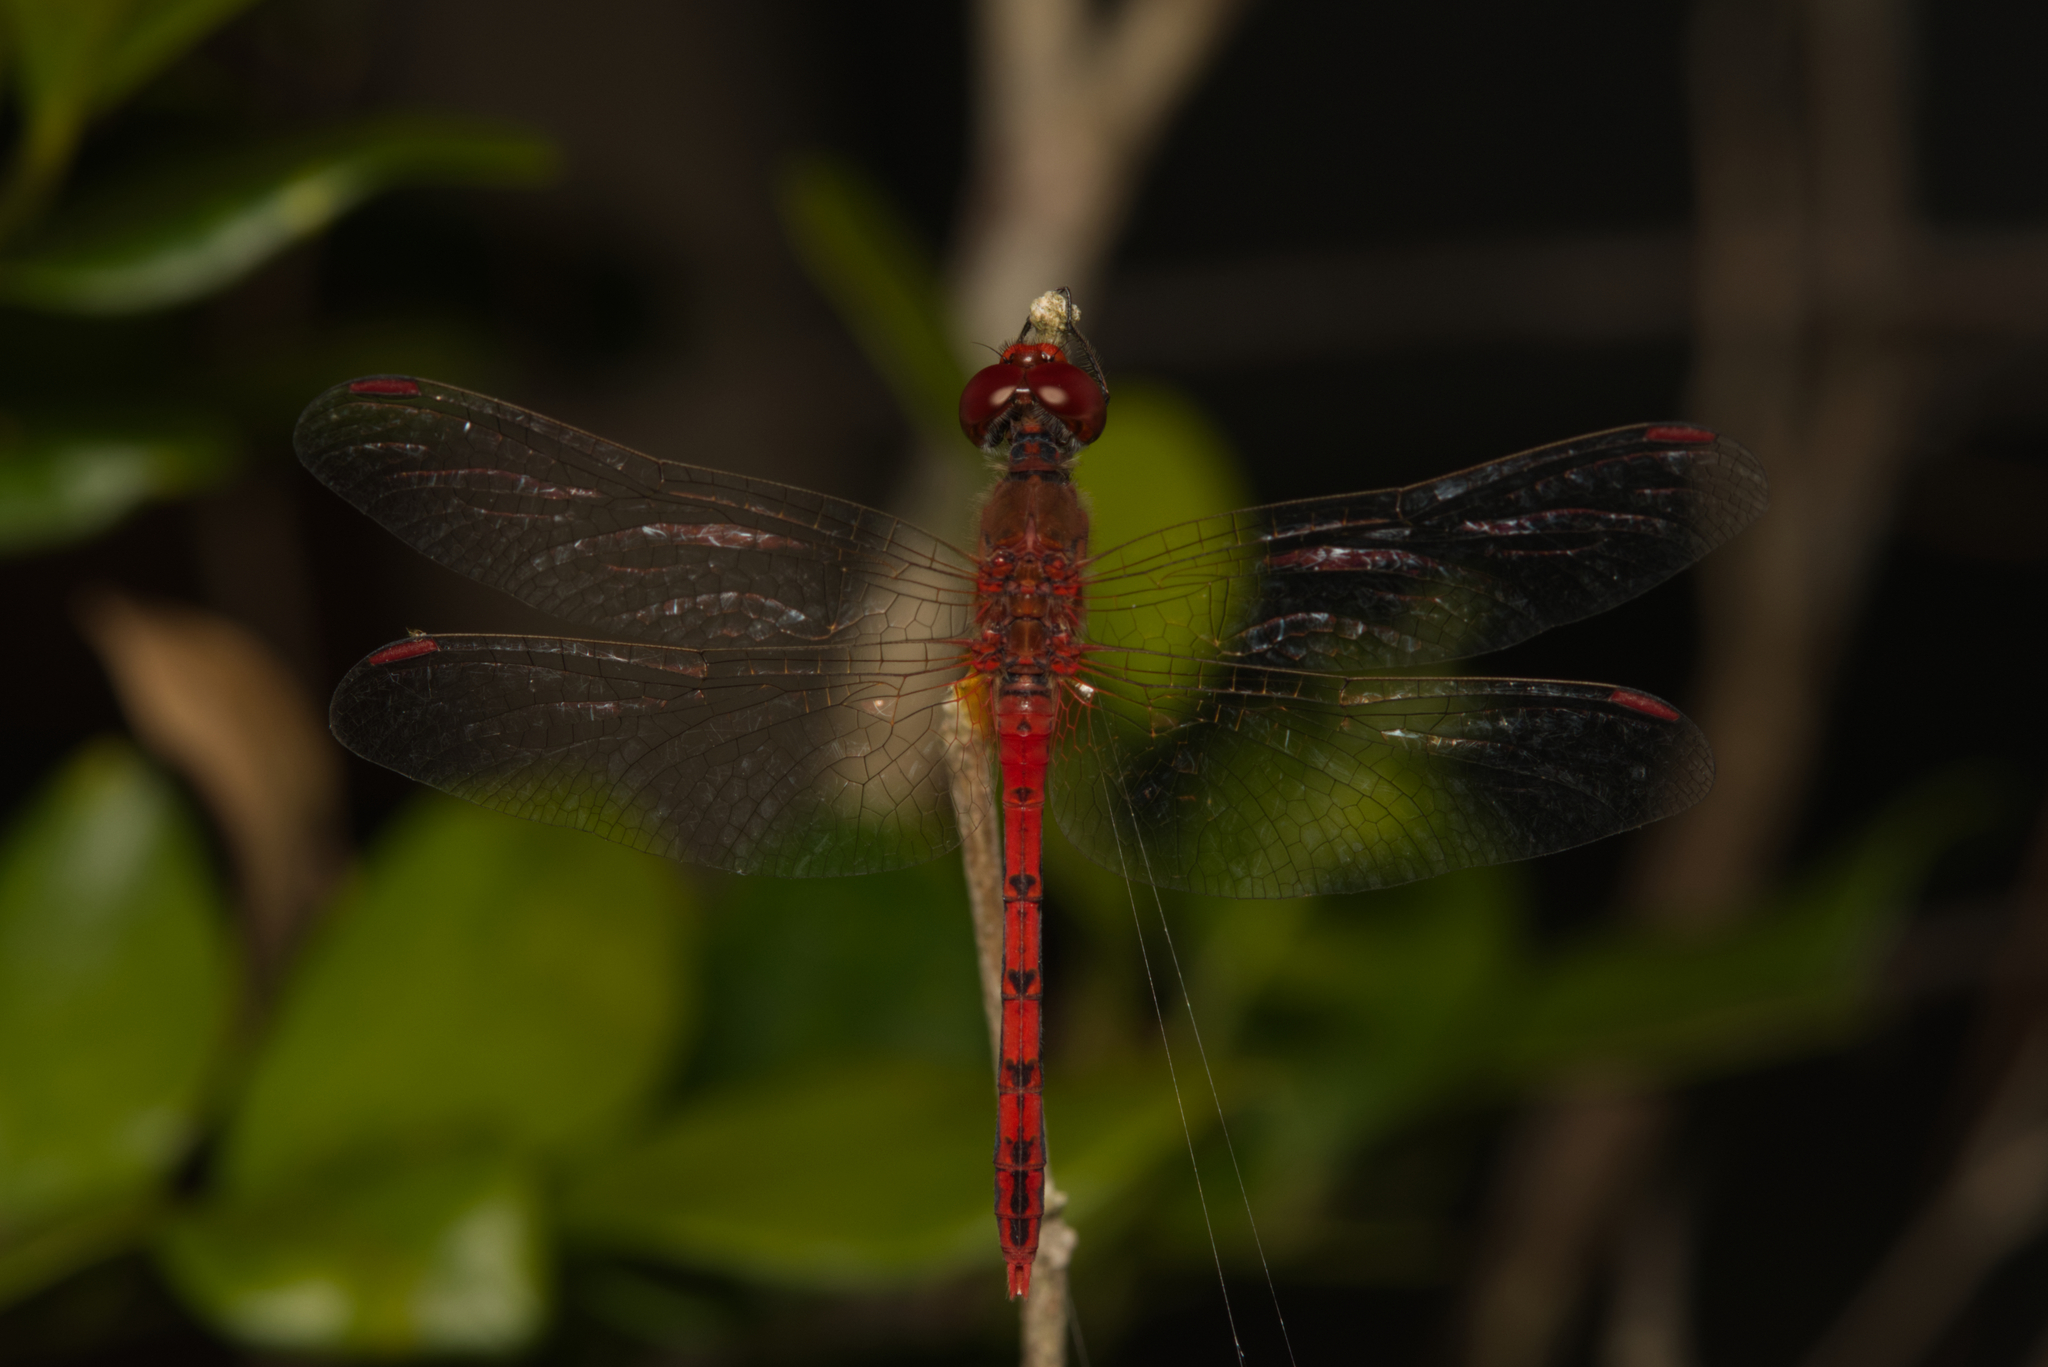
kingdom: Animalia
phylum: Arthropoda
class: Insecta
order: Odonata
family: Libellulidae
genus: Diplacodes
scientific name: Diplacodes bipunctata
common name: Red percher dragonfly
